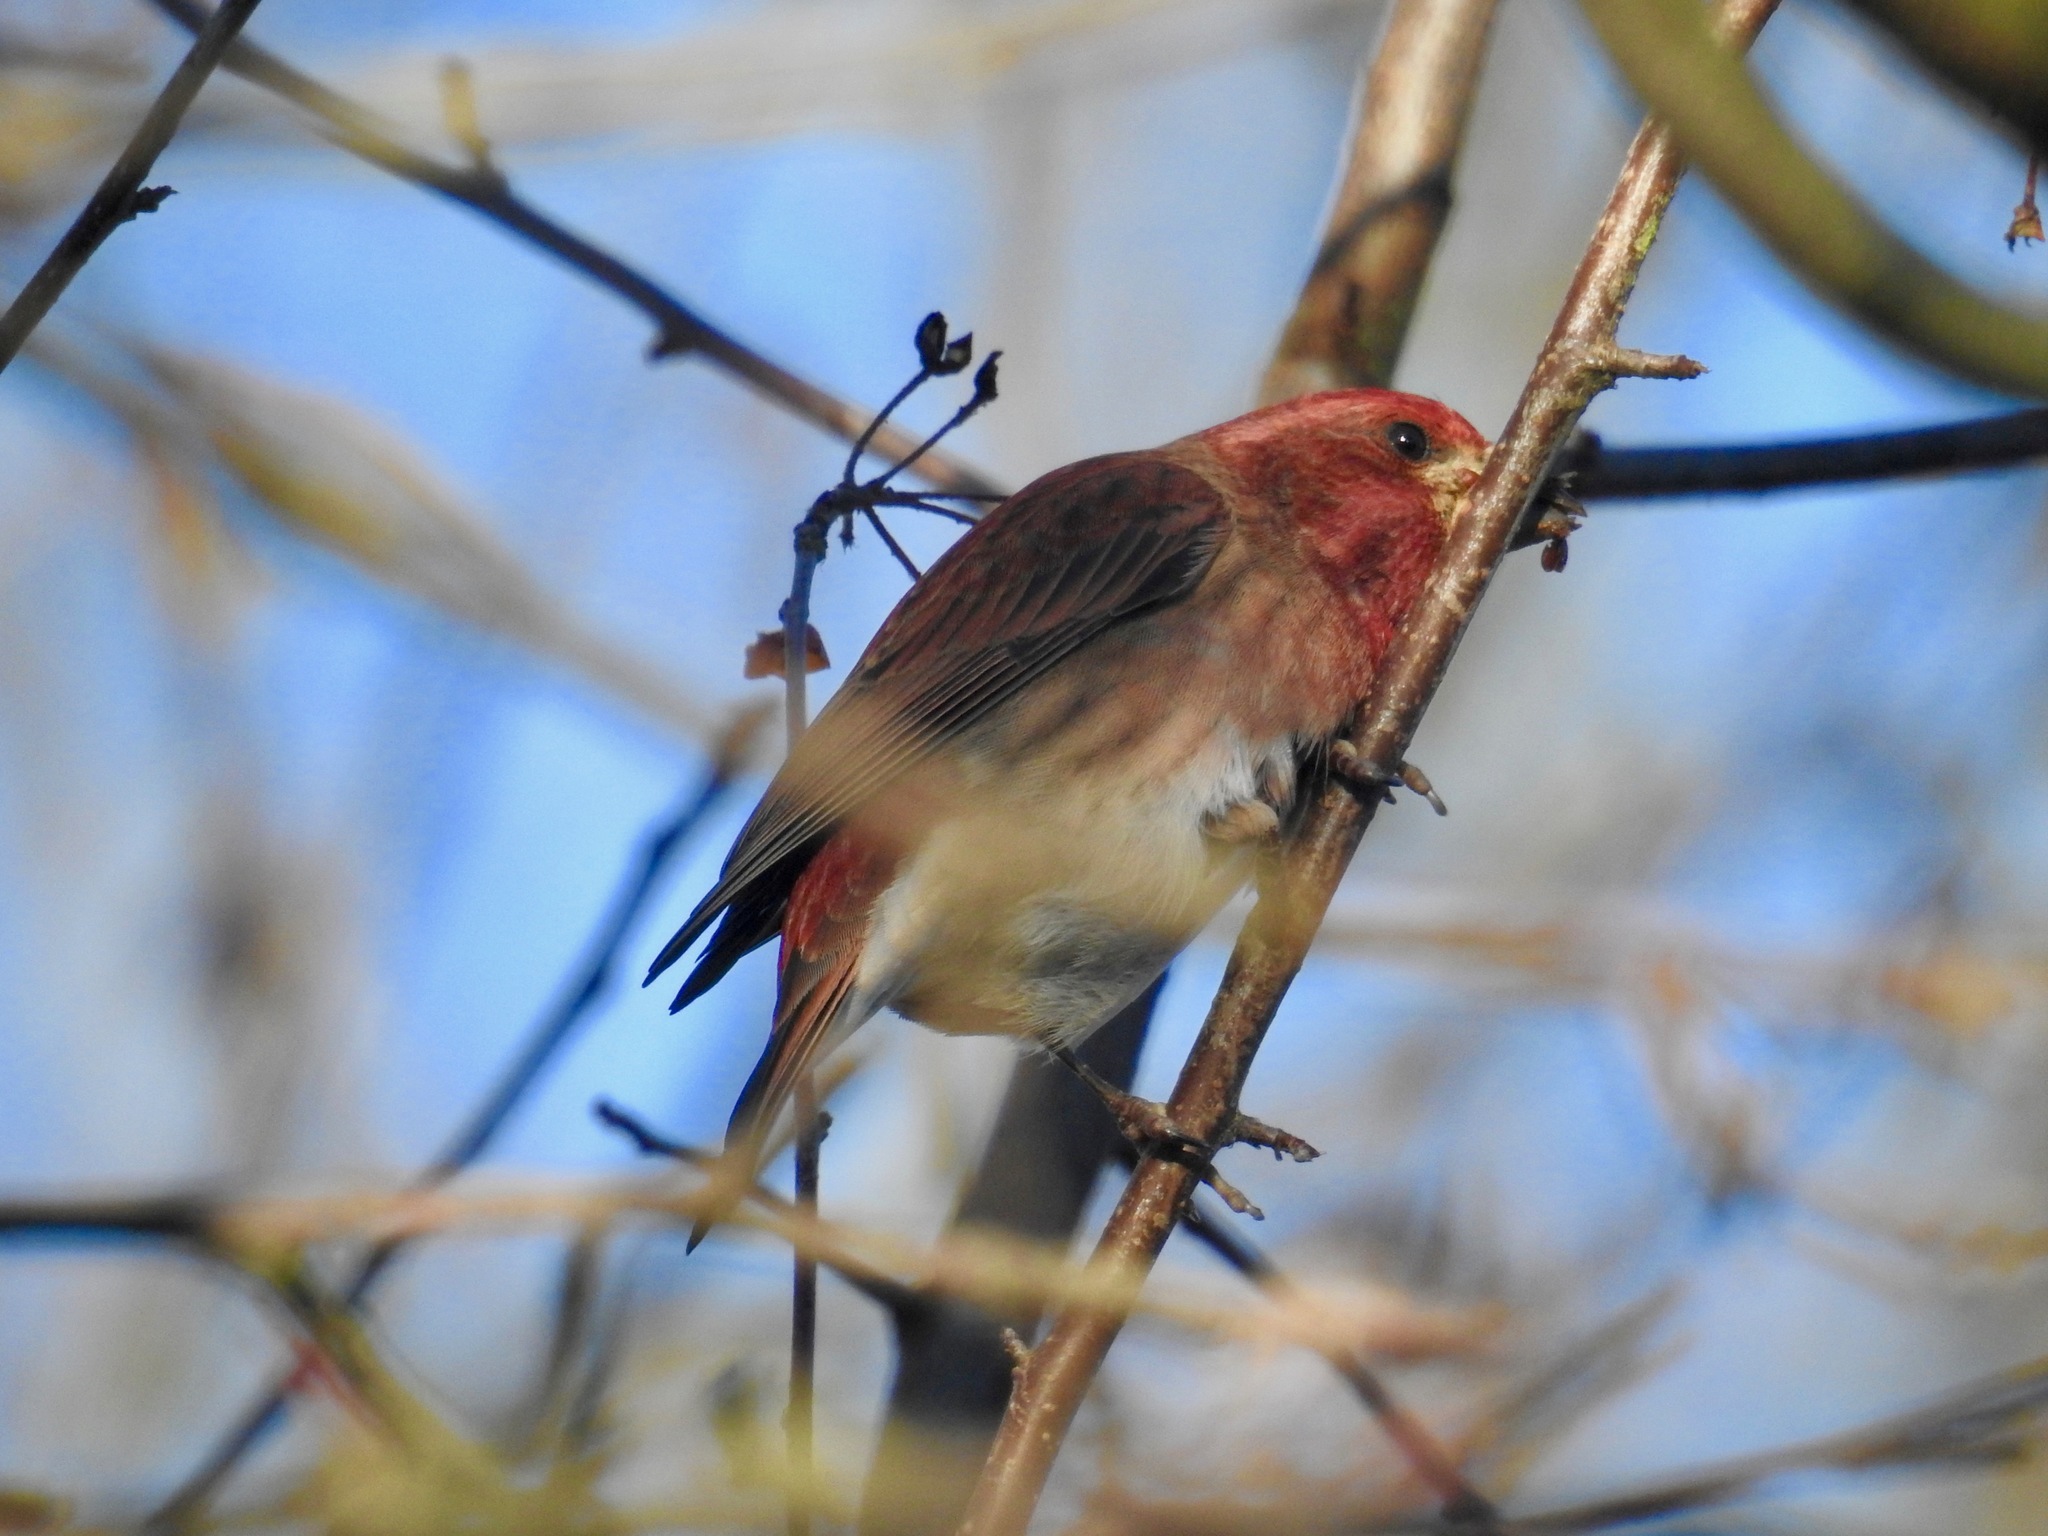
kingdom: Animalia
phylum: Chordata
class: Aves
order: Passeriformes
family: Fringillidae
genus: Haemorhous
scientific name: Haemorhous purpureus
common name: Purple finch
